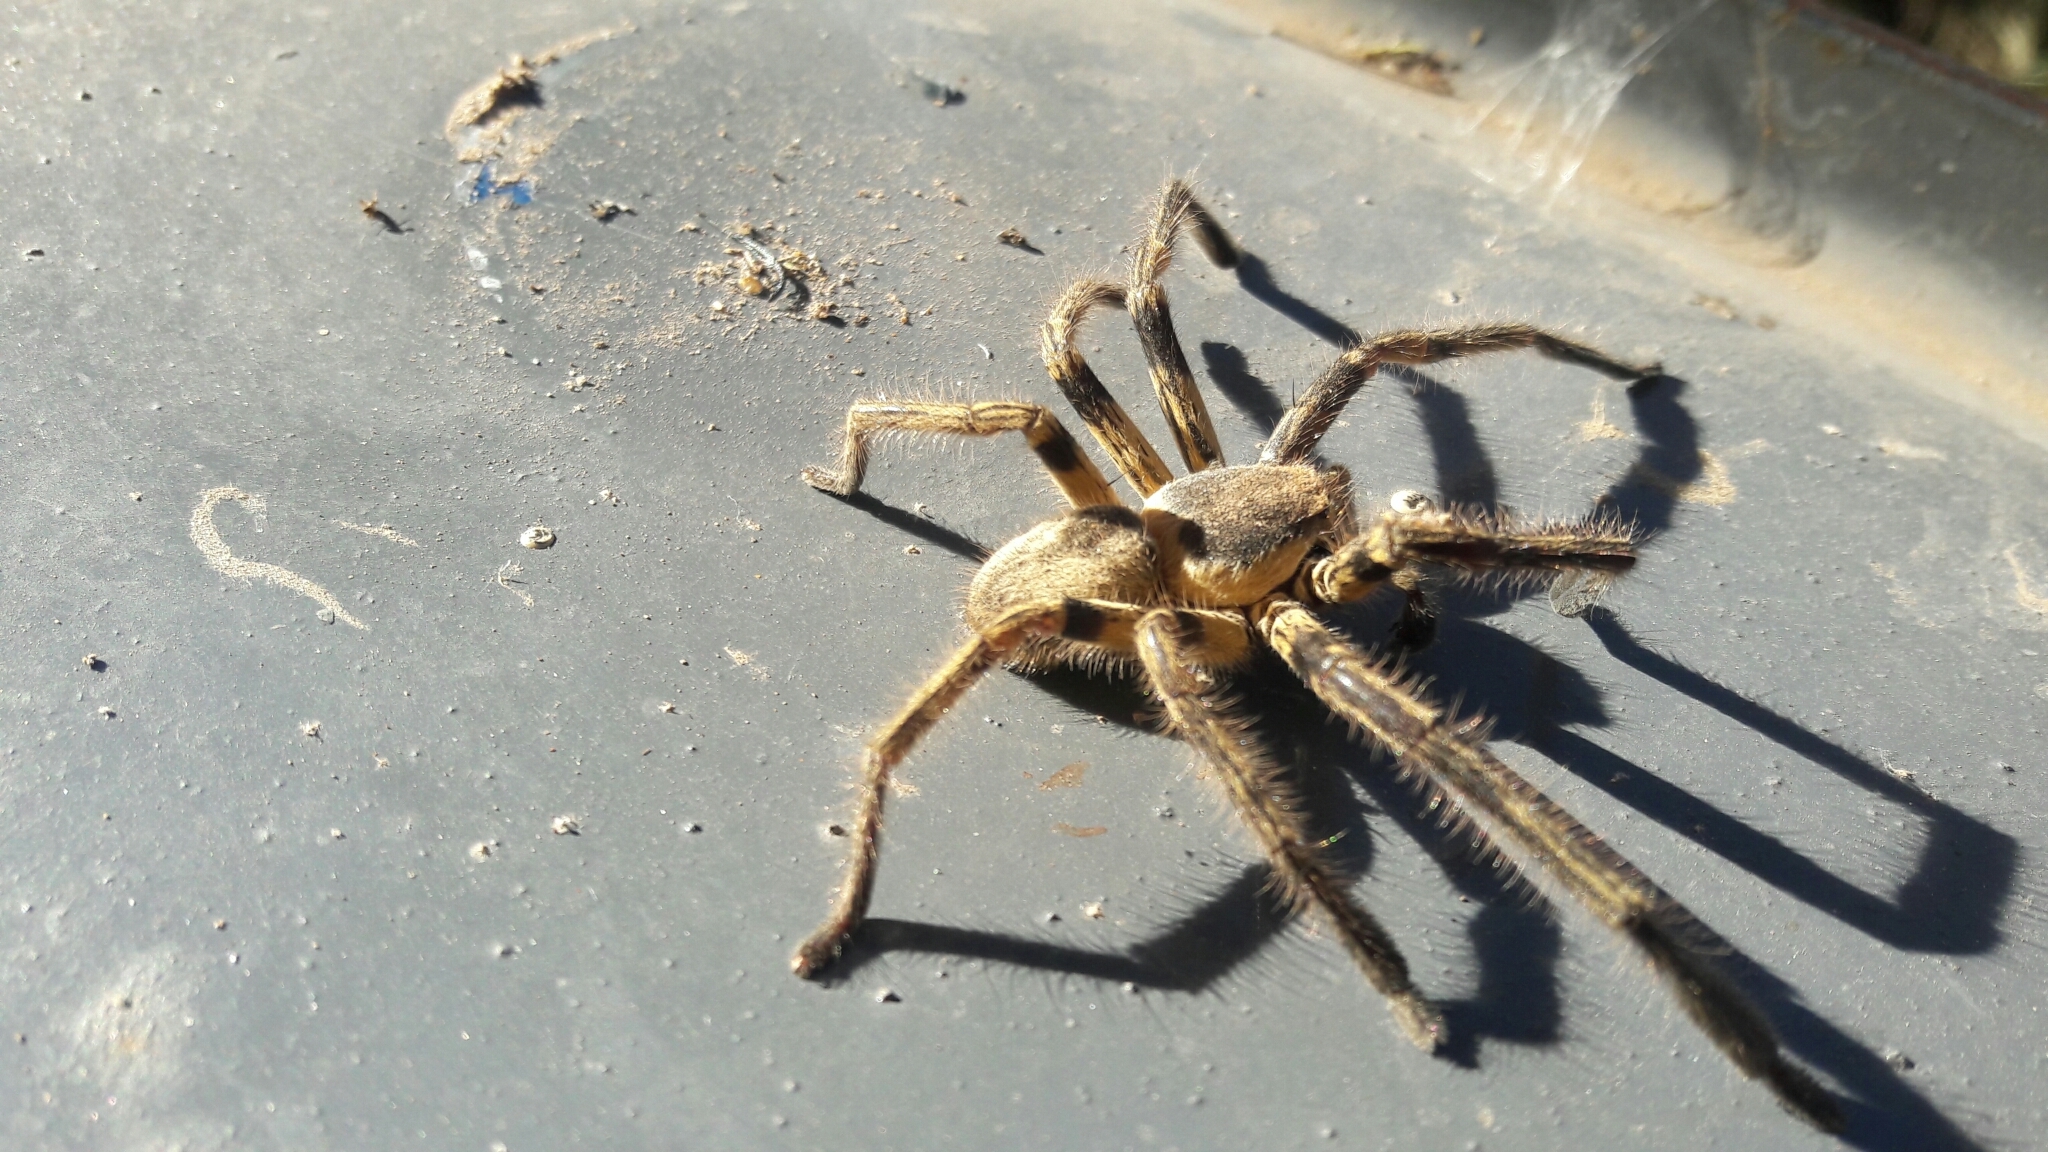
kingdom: Animalia
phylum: Arthropoda
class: Arachnida
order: Araneae
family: Sparassidae
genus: Polybetes
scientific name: Polybetes pythagoricus
